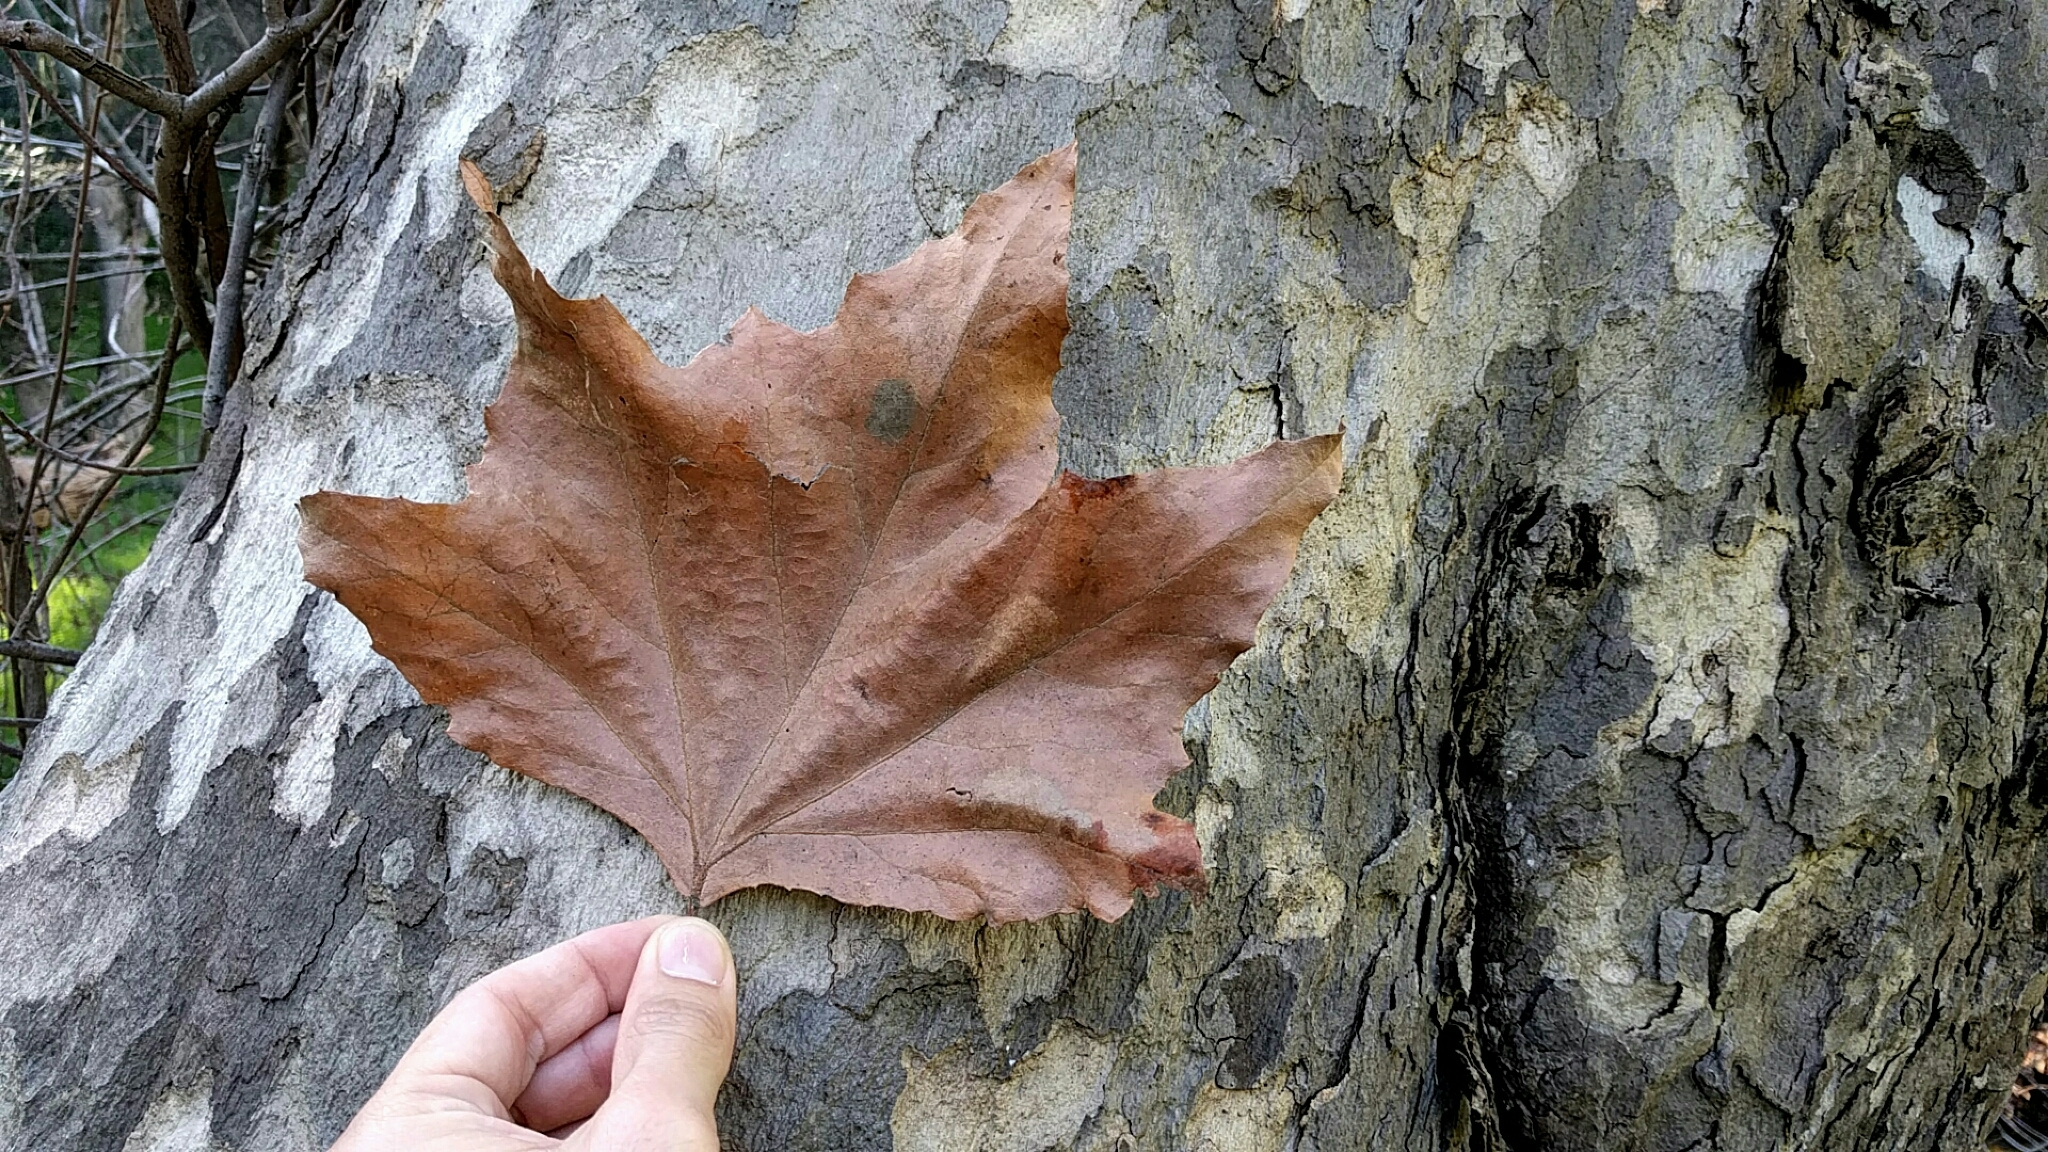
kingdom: Plantae
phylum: Tracheophyta
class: Magnoliopsida
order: Proteales
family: Platanaceae
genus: Platanus
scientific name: Platanus racemosa
